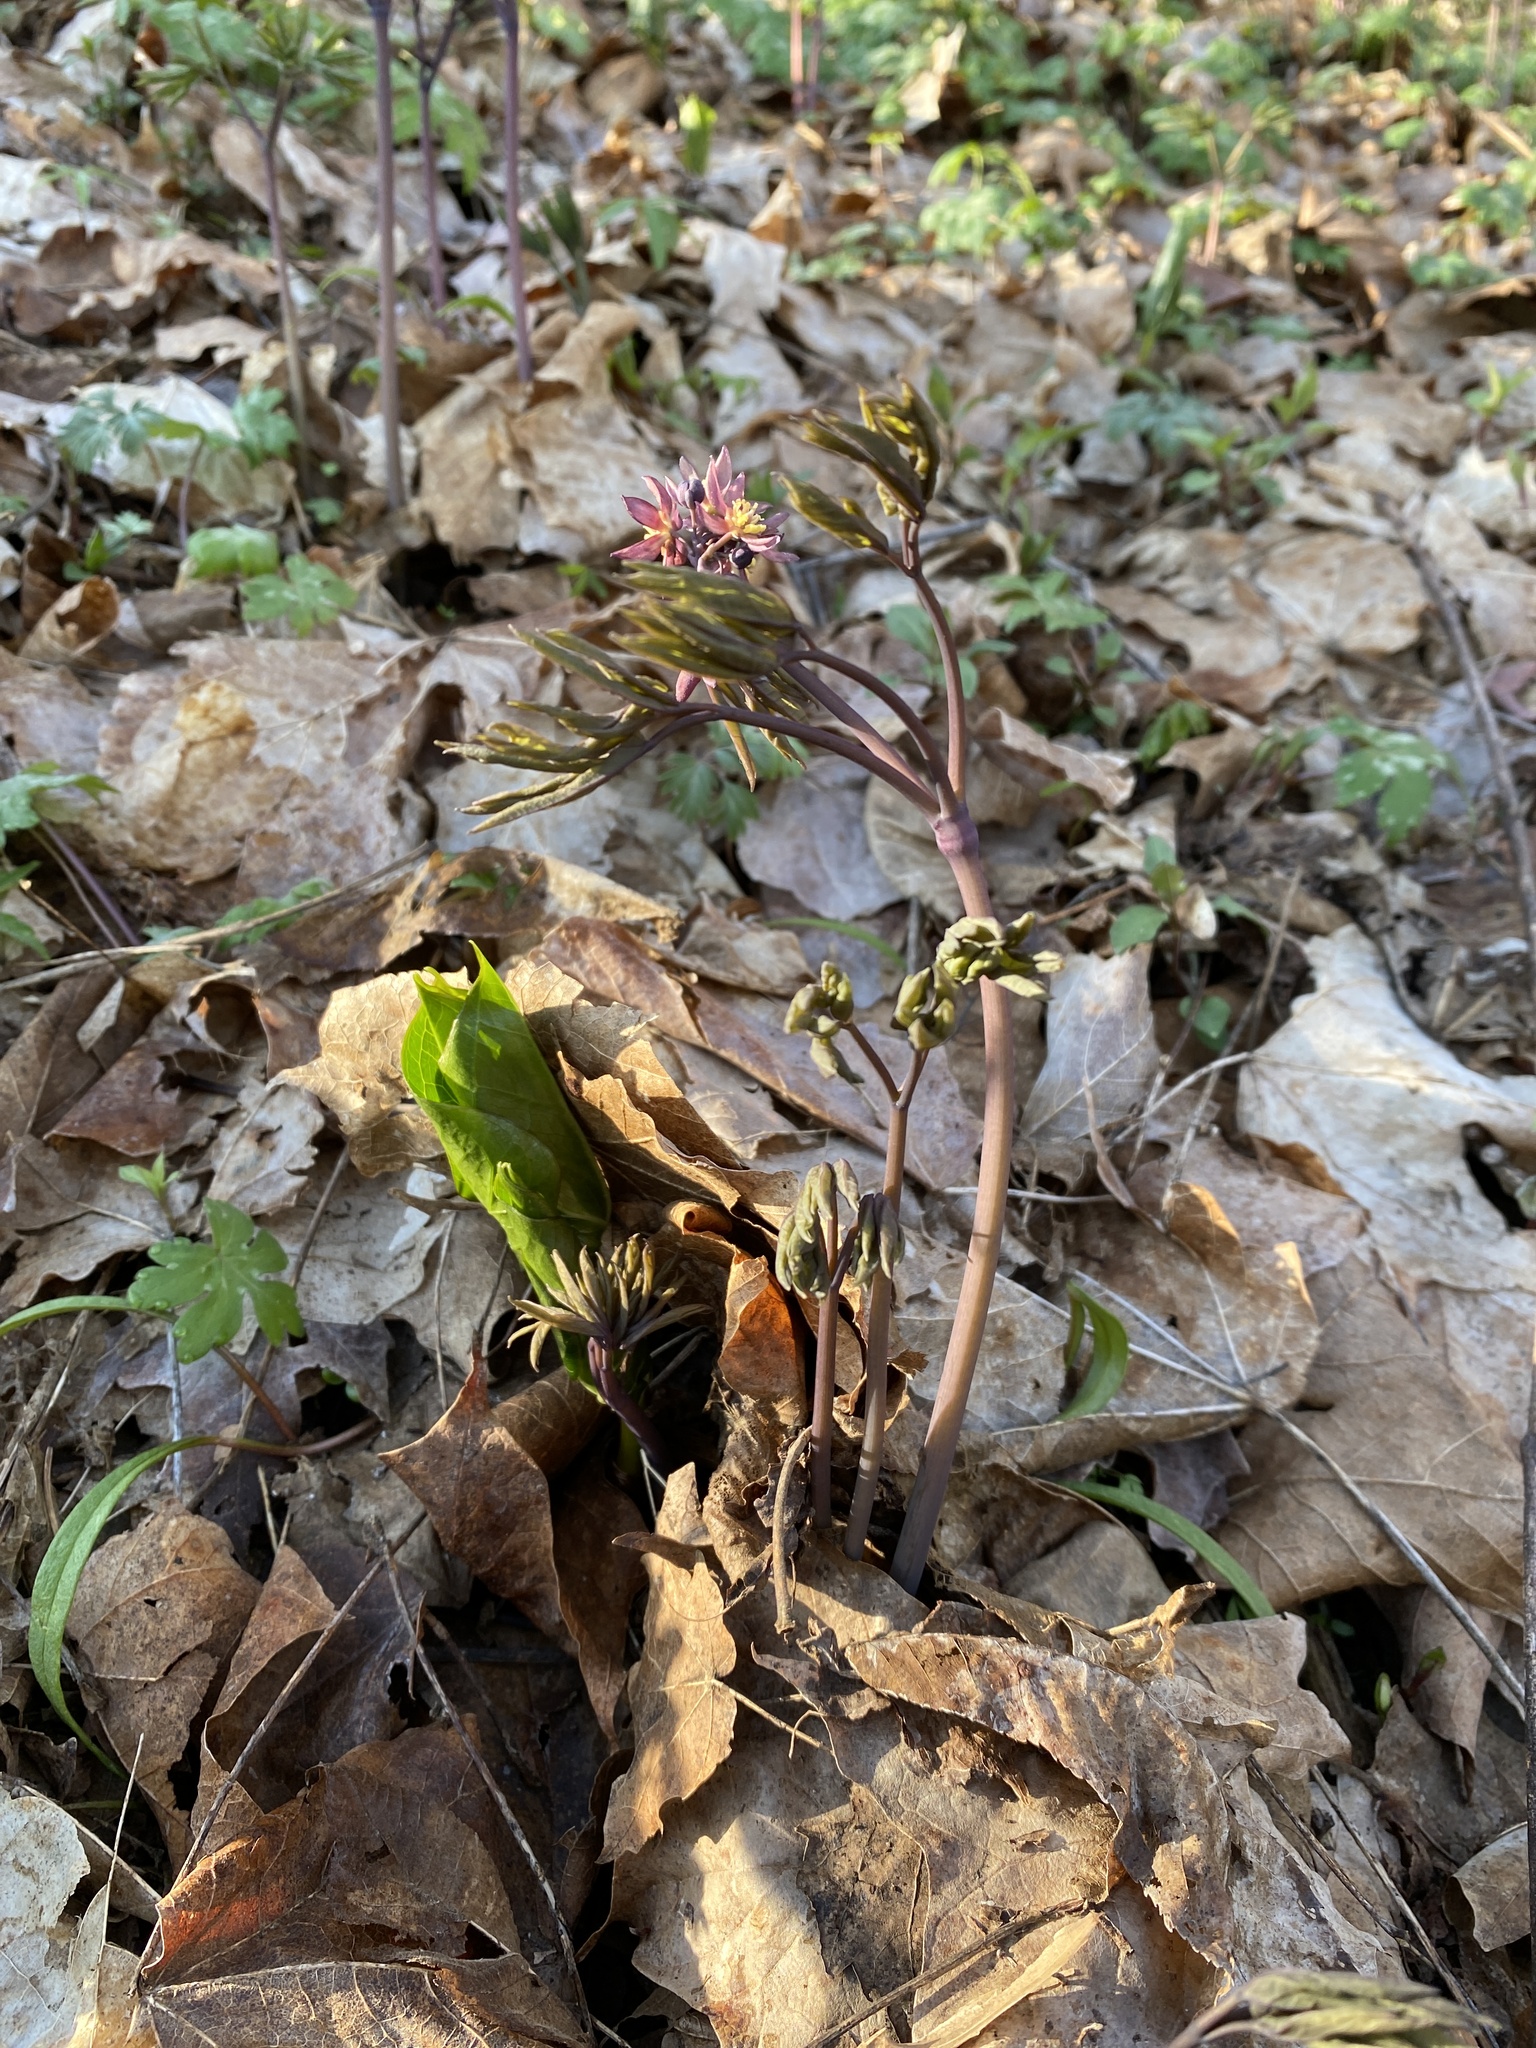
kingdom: Plantae
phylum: Tracheophyta
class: Magnoliopsida
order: Ranunculales
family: Berberidaceae
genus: Caulophyllum
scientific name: Caulophyllum giganteum
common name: Blue cohosh
